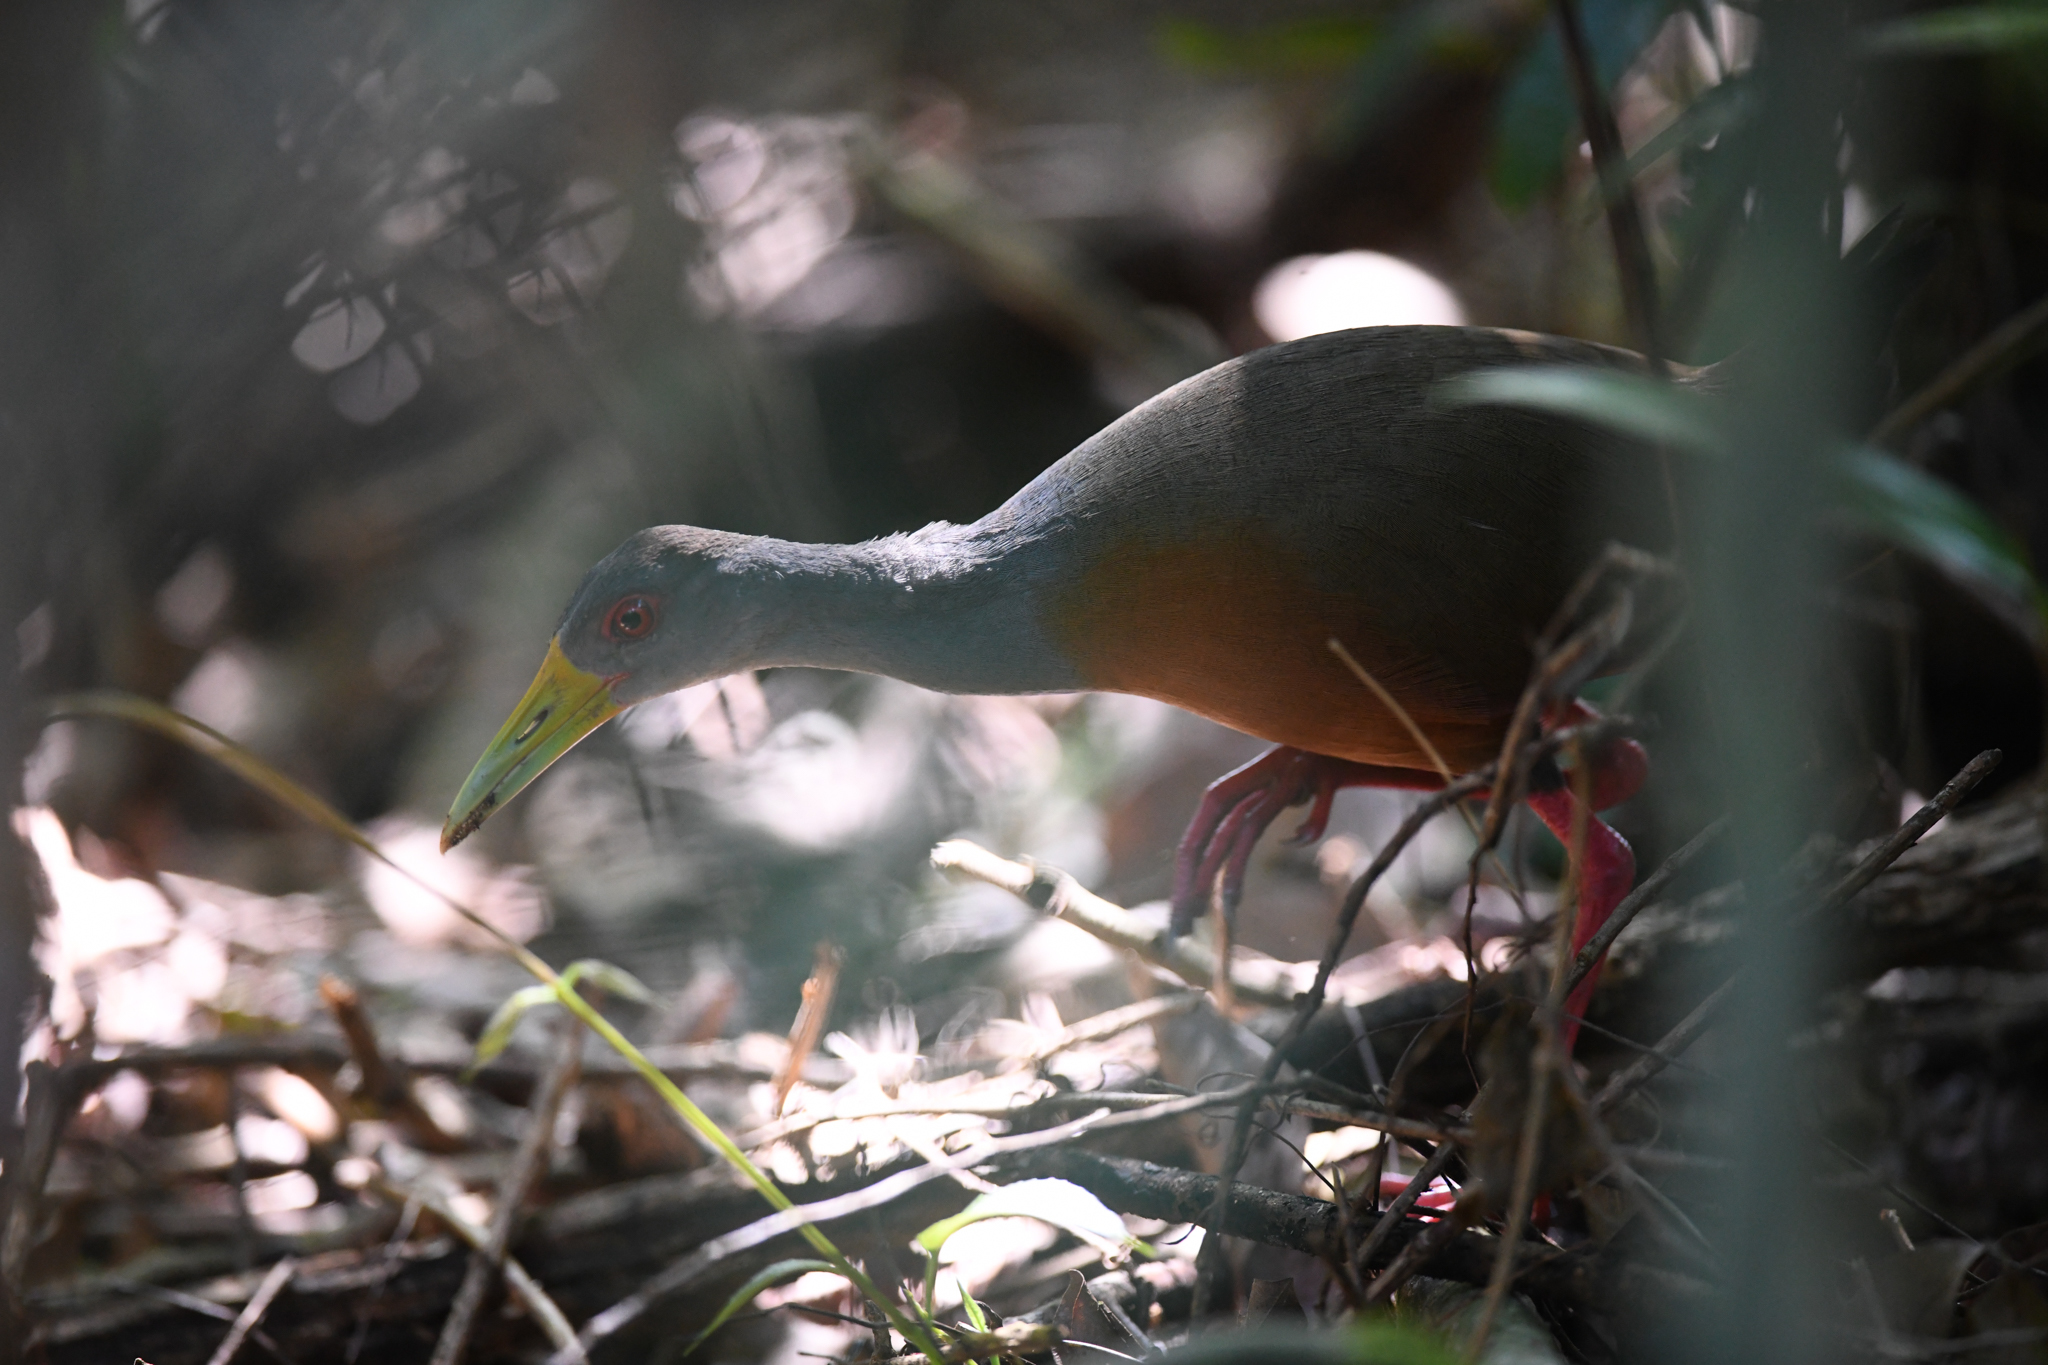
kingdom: Animalia
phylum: Chordata
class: Aves
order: Gruiformes
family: Rallidae
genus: Aramides
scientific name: Aramides cajanea
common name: Gray-necked wood-rail
